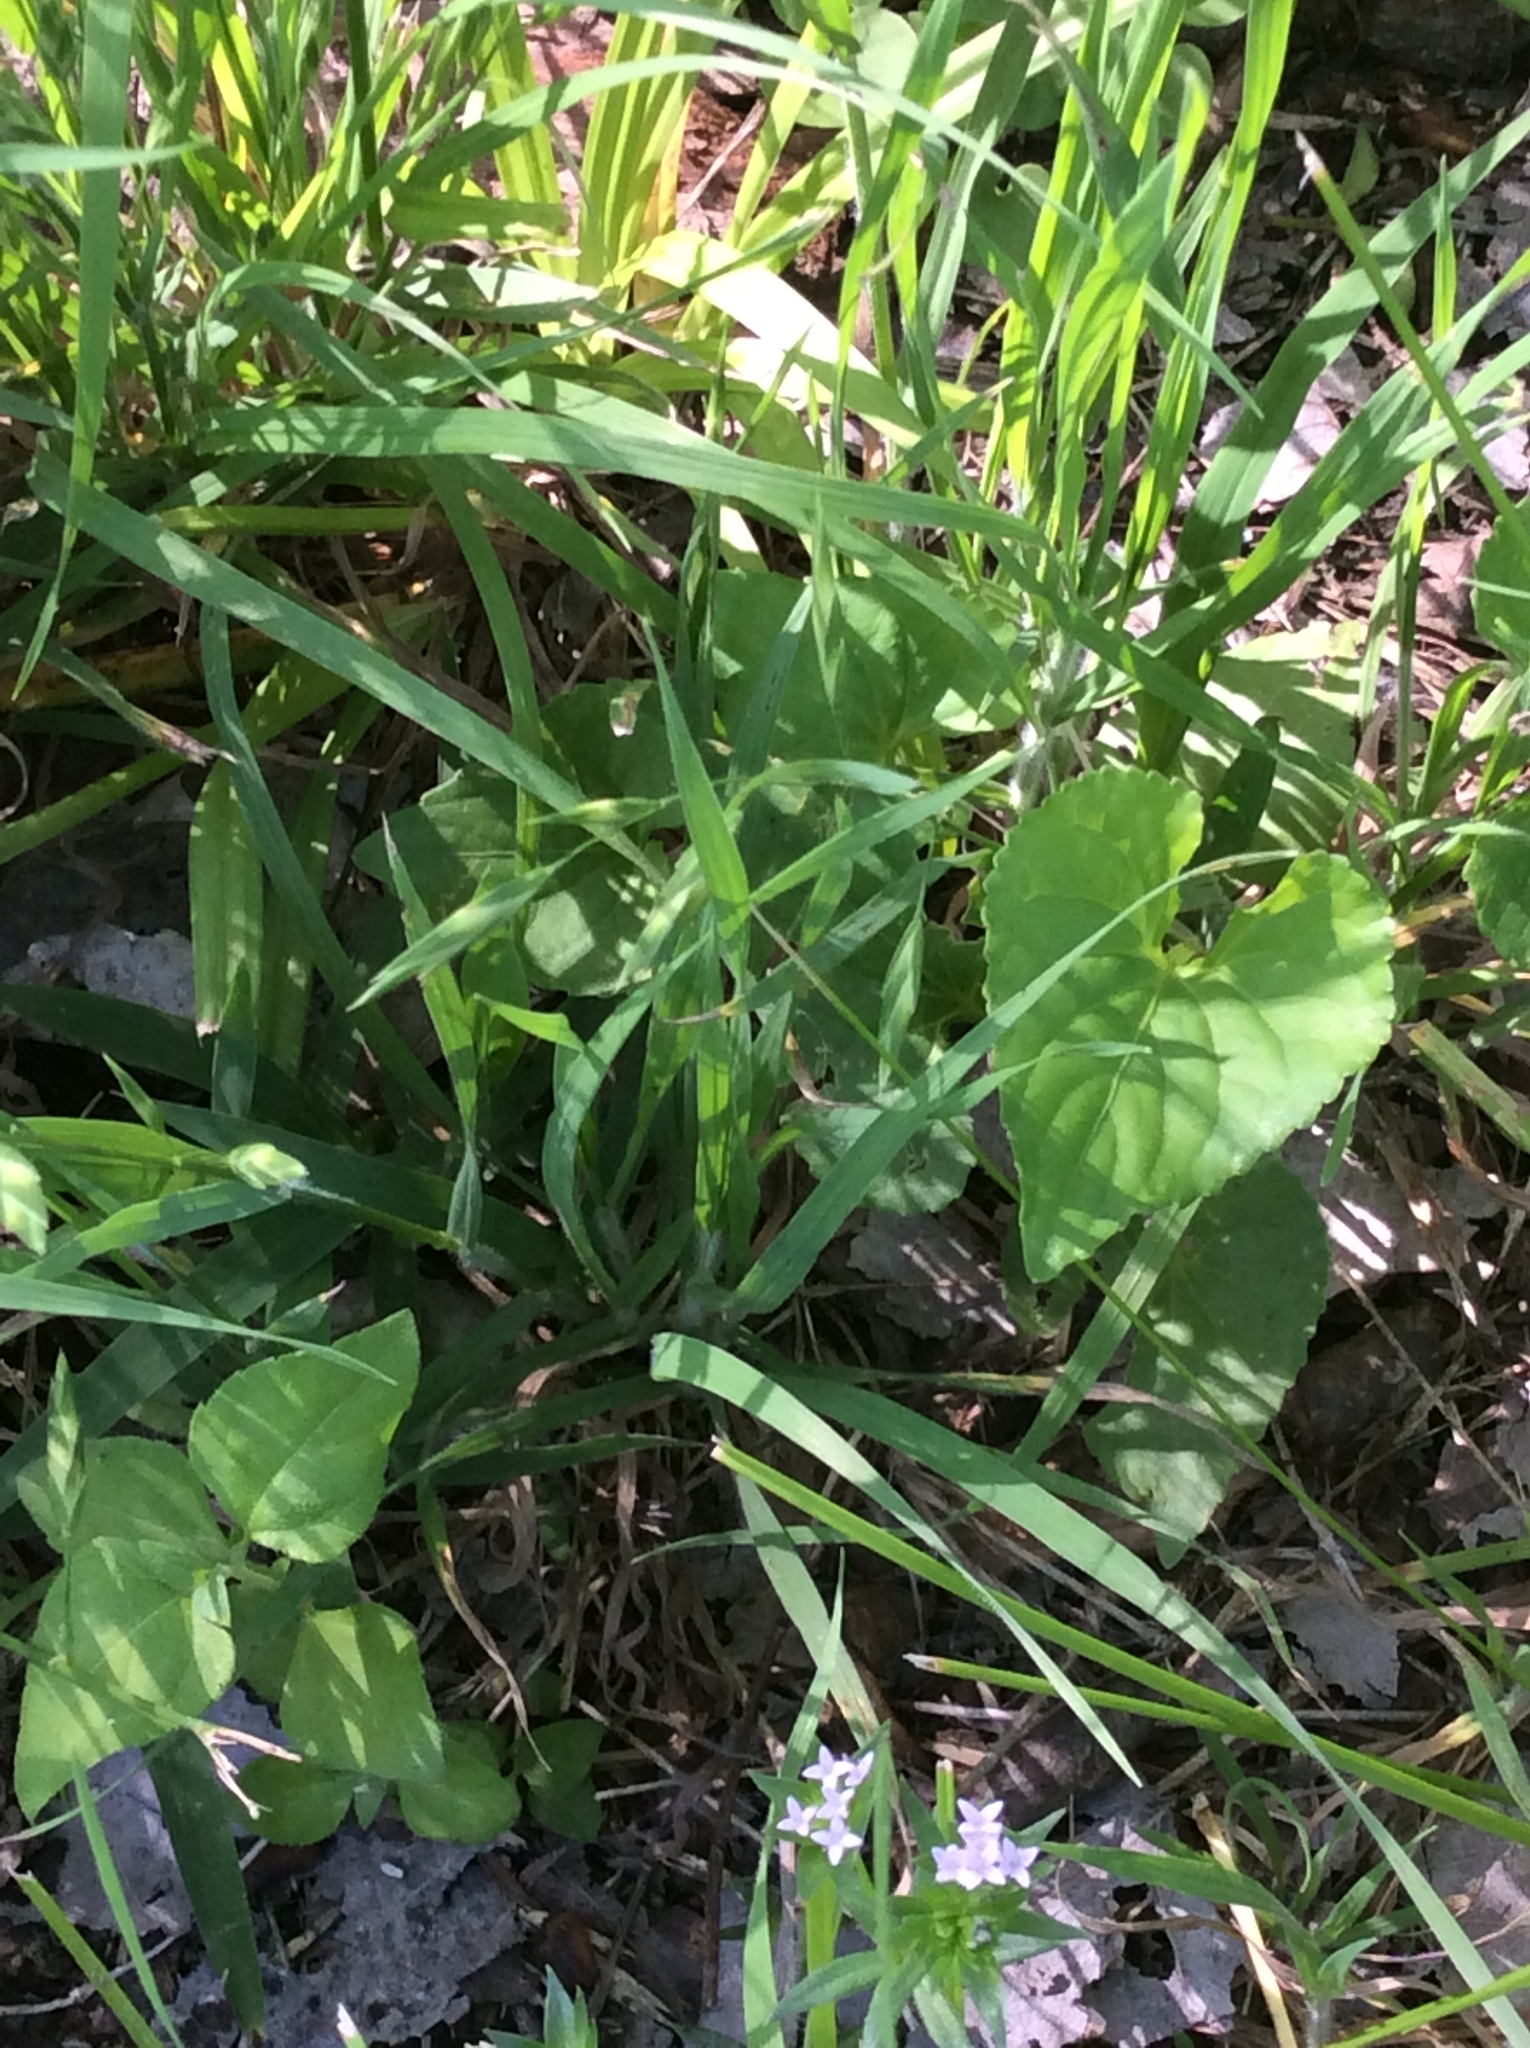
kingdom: Plantae
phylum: Tracheophyta
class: Liliopsida
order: Poales
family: Poaceae
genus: Bromus
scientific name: Bromus catharticus
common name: Rescuegrass
